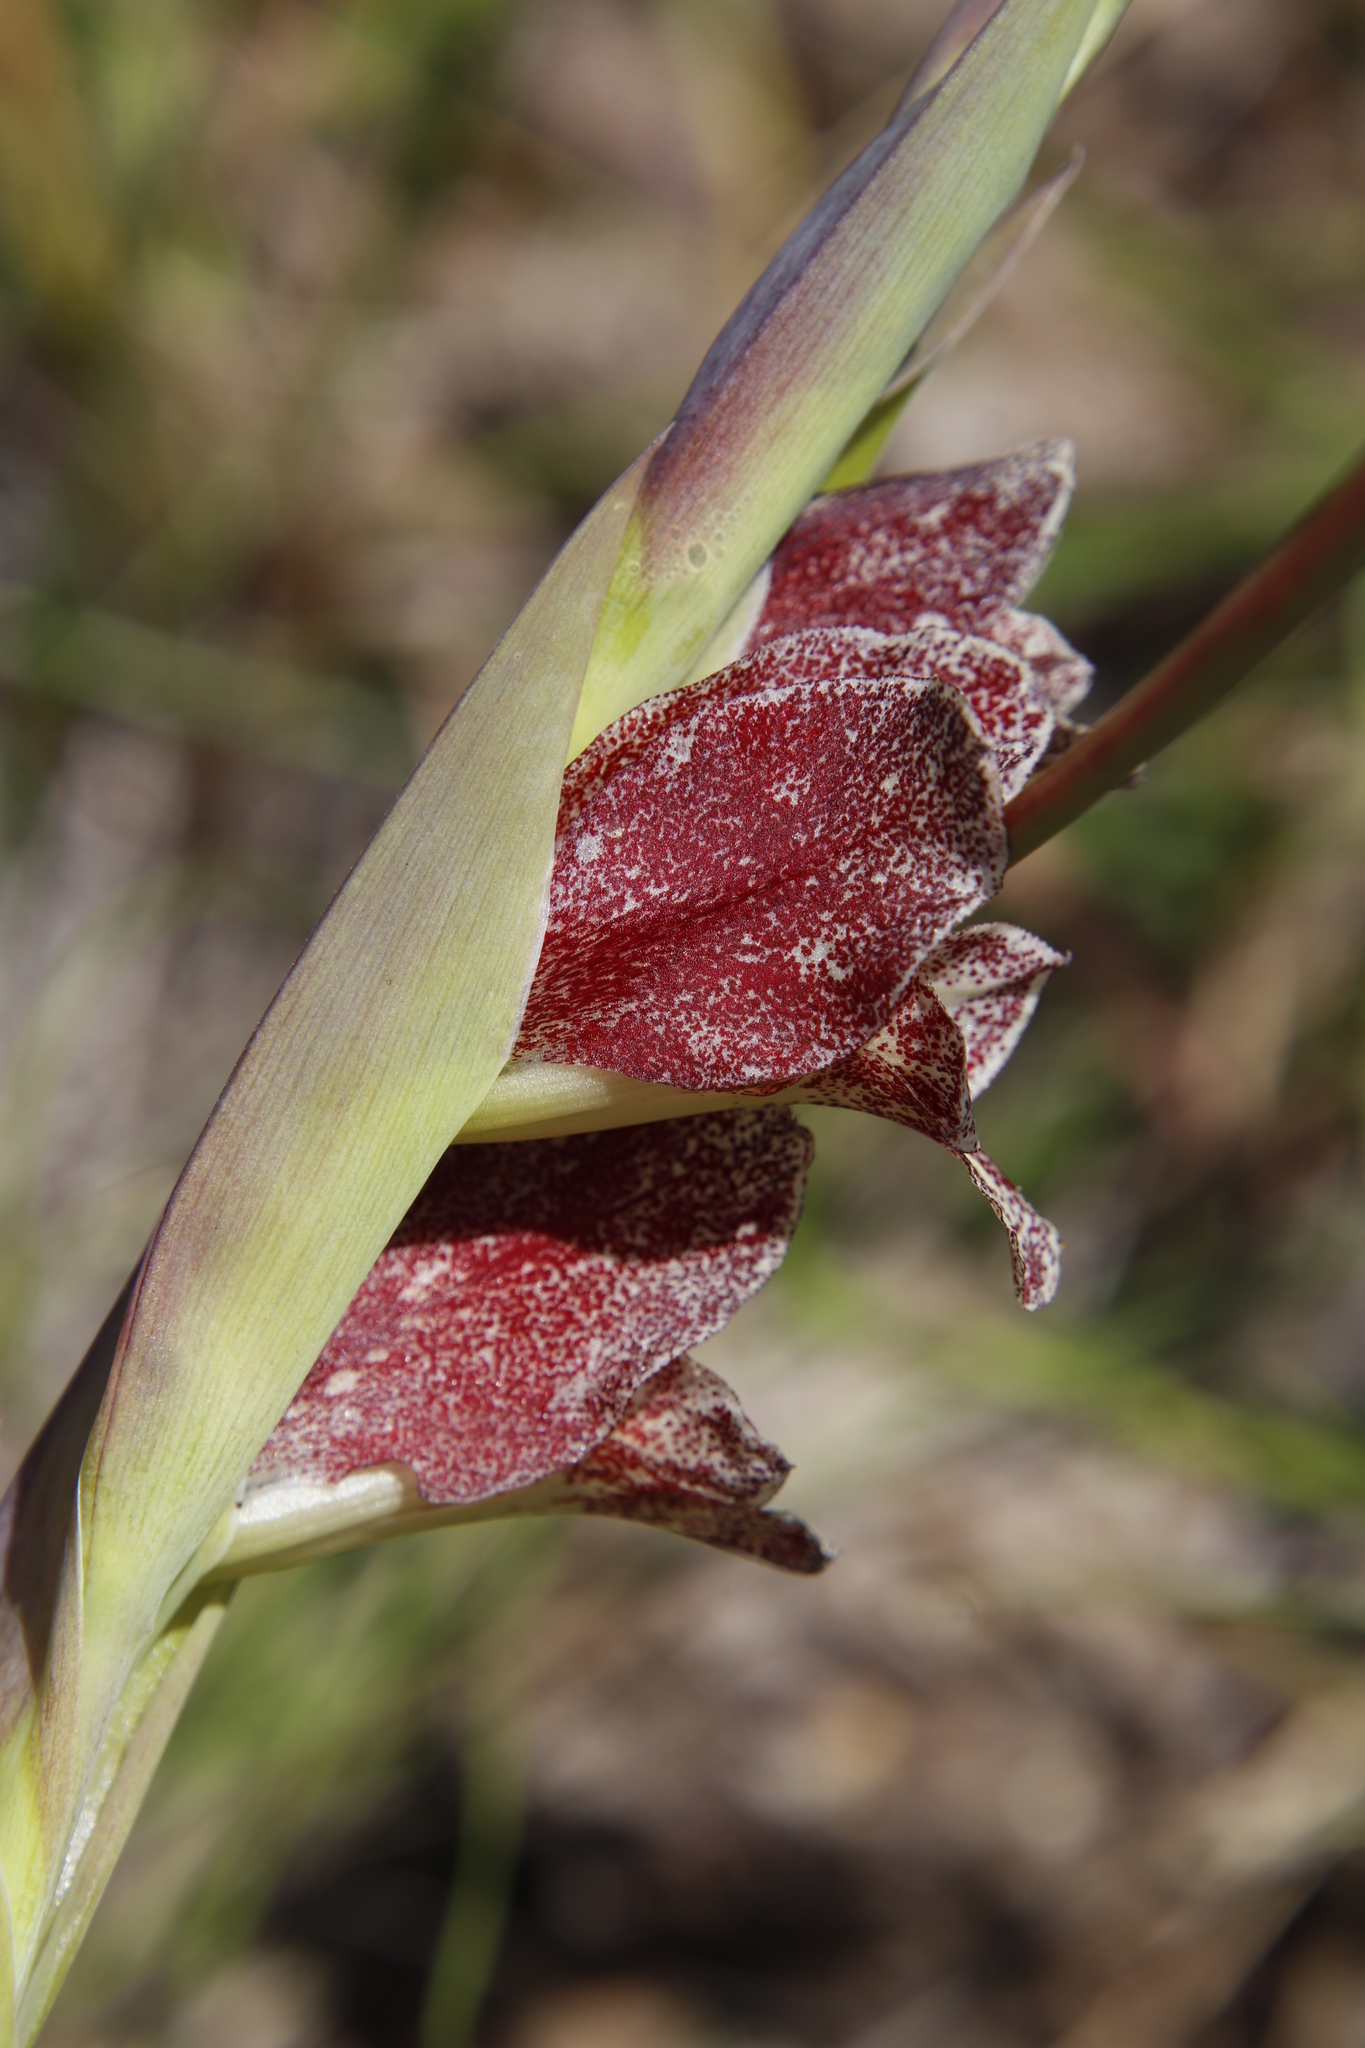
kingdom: Plantae
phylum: Tracheophyta
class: Liliopsida
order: Asparagales
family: Iridaceae
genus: Gladiolus
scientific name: Gladiolus ecklonii
